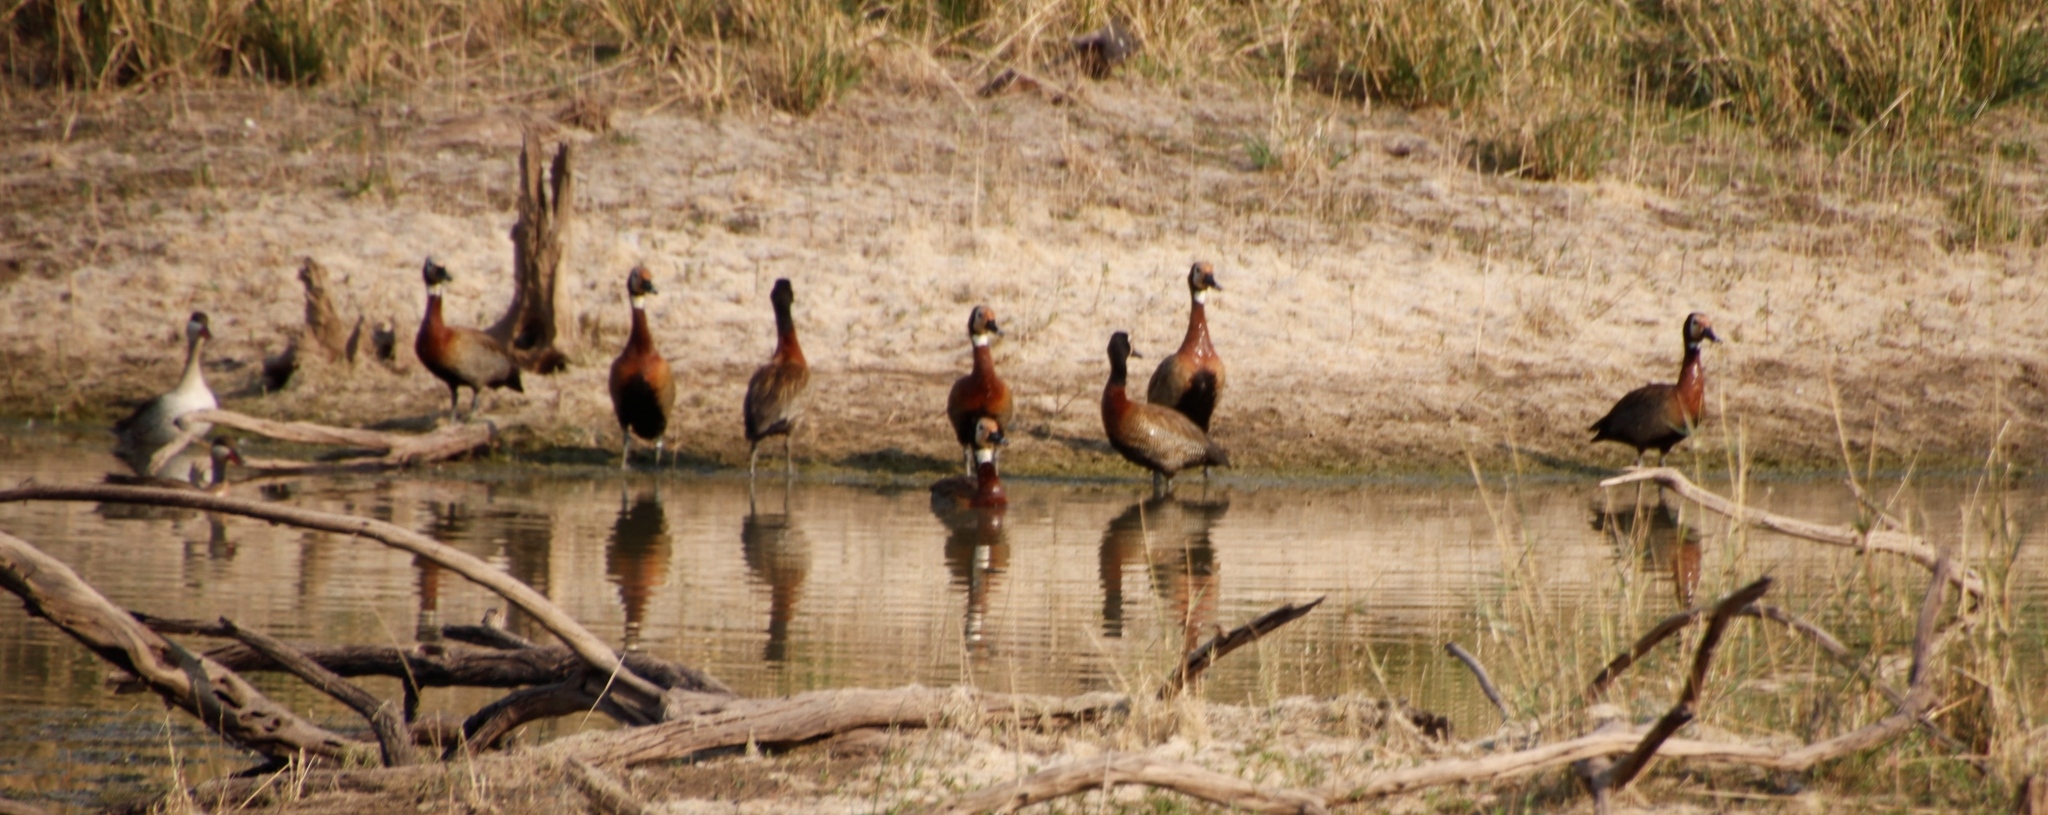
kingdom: Animalia
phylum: Chordata
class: Aves
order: Anseriformes
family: Anatidae
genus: Dendrocygna
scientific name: Dendrocygna viduata
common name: White-faced whistling duck
